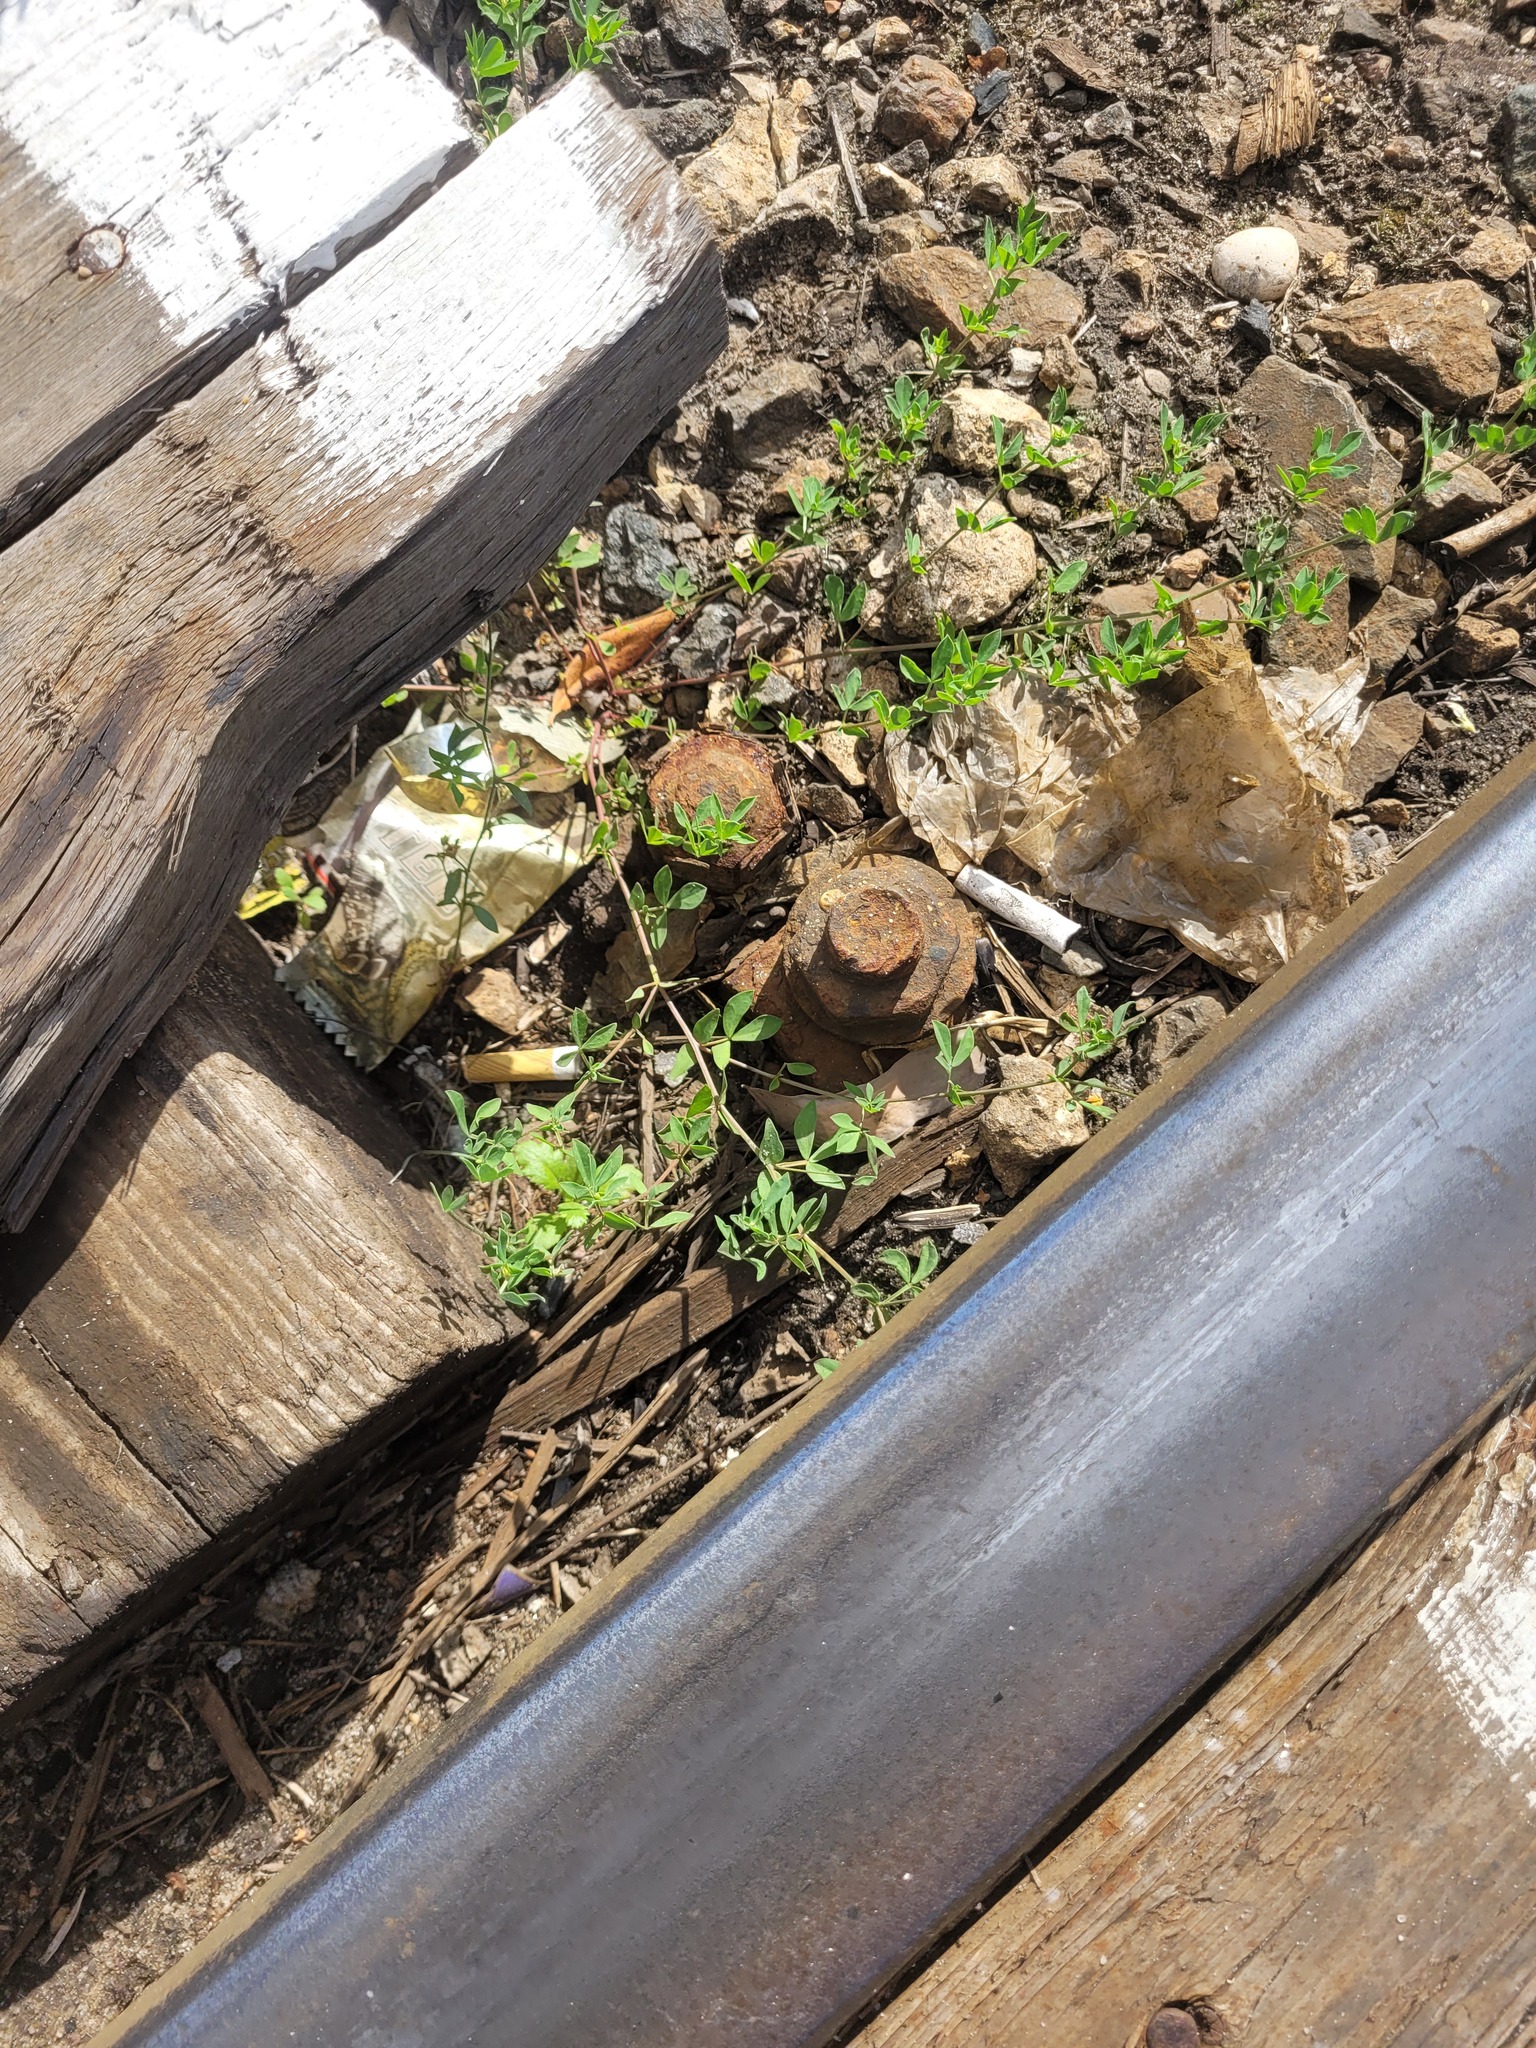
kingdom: Plantae
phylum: Tracheophyta
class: Magnoliopsida
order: Fabales
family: Fabaceae
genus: Lotus
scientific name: Lotus corniculatus
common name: Common bird's-foot-trefoil
